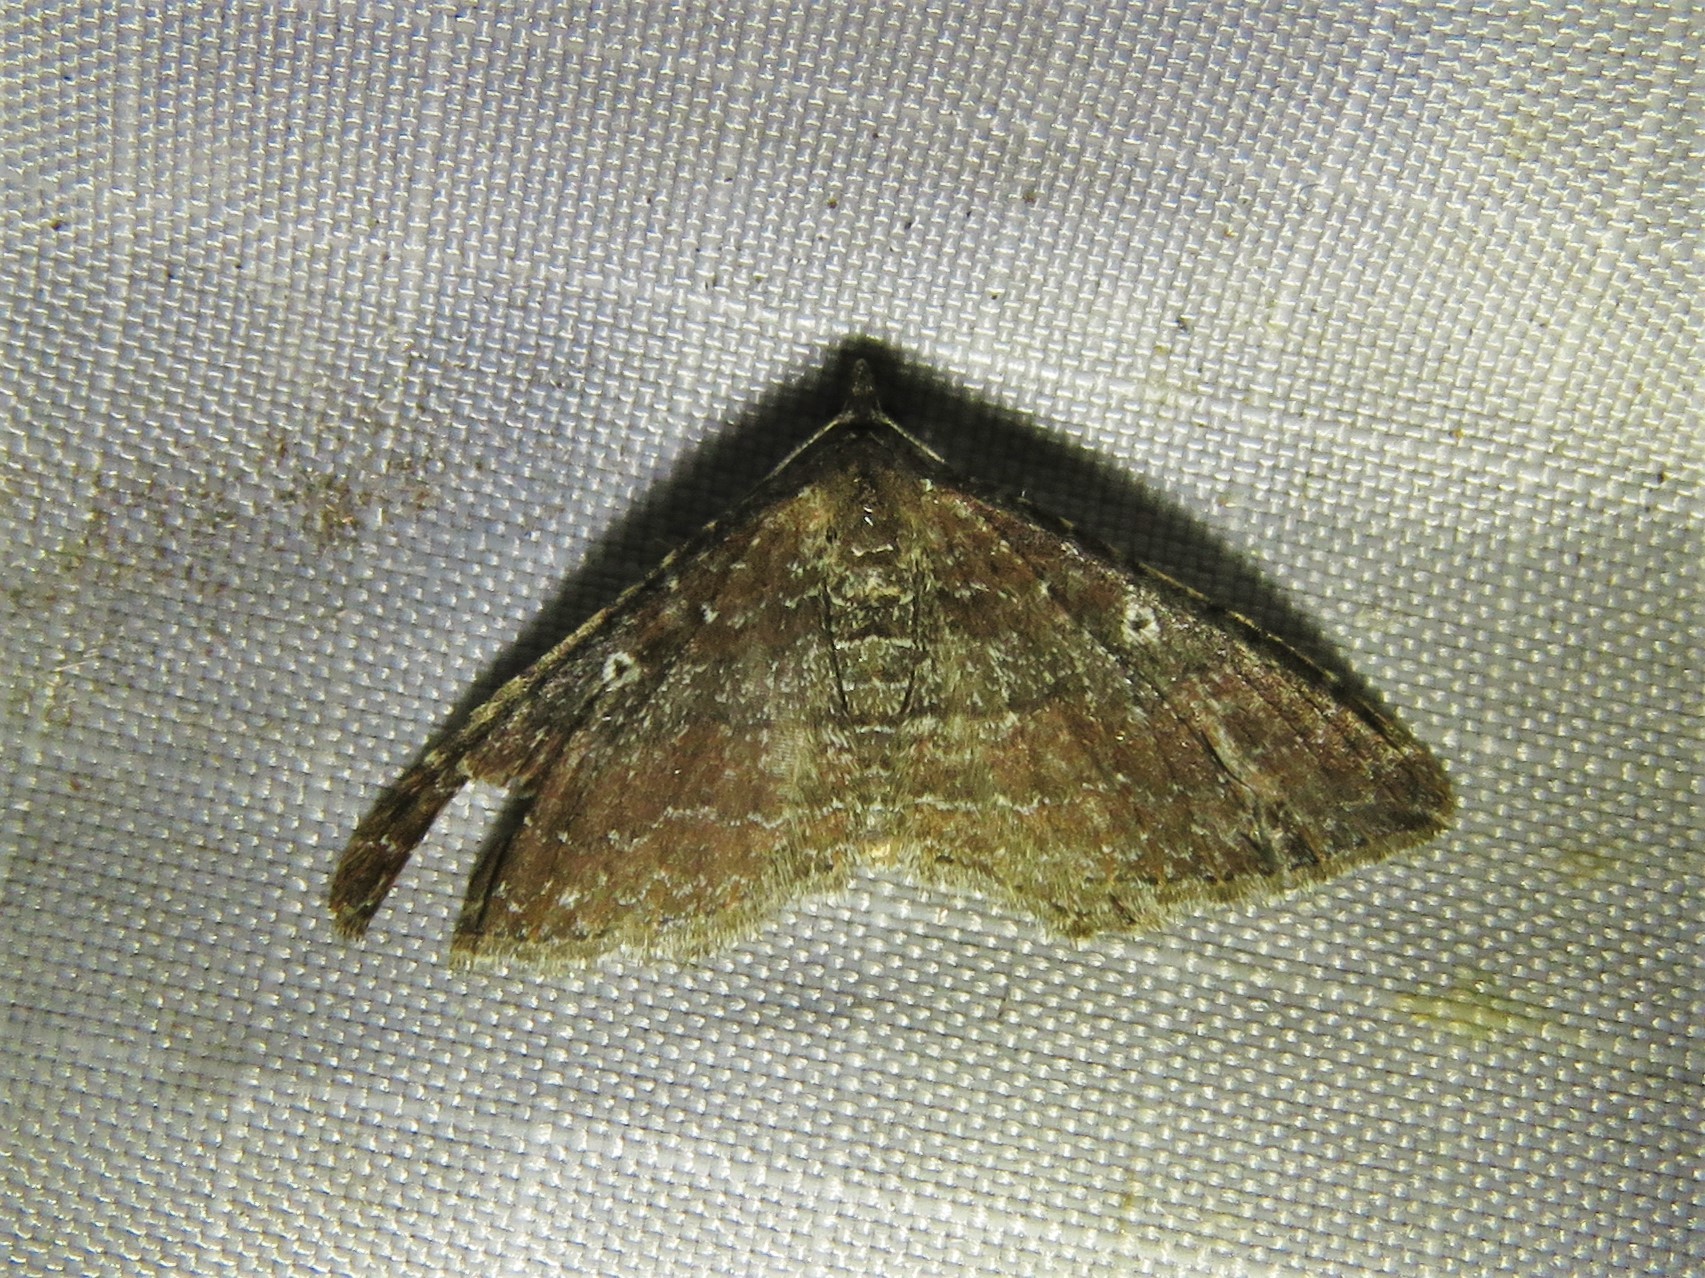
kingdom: Animalia
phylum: Arthropoda
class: Insecta
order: Lepidoptera
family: Geometridae
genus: Orthonama
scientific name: Orthonama obstipata
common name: The gem
